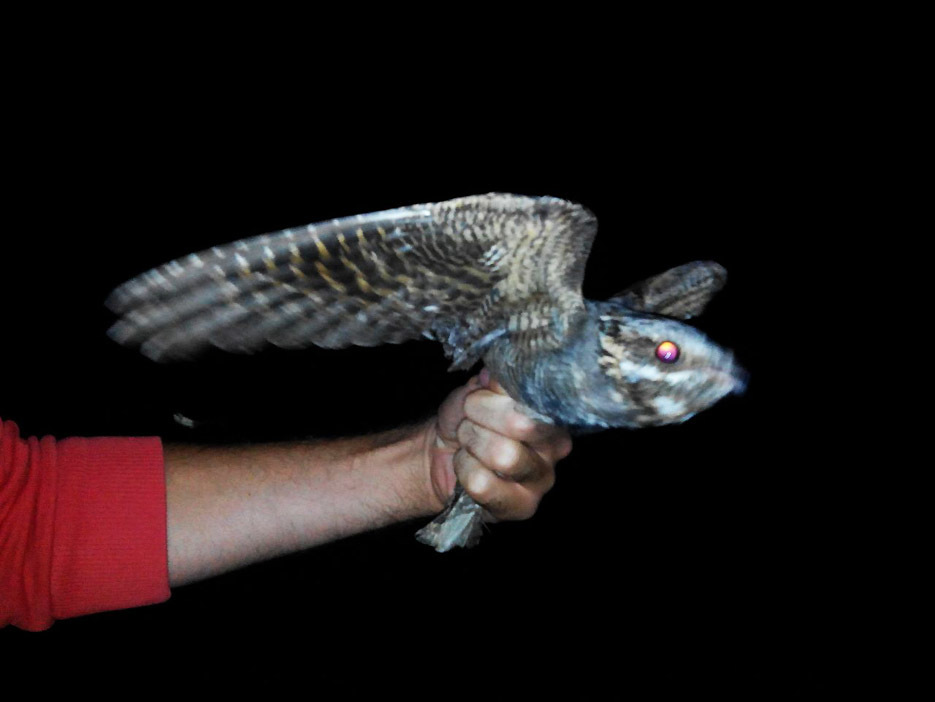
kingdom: Animalia
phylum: Chordata
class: Aves
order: Caprimulgiformes
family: Caprimulgidae
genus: Caprimulgus
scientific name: Caprimulgus europaeus
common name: European nightjar
